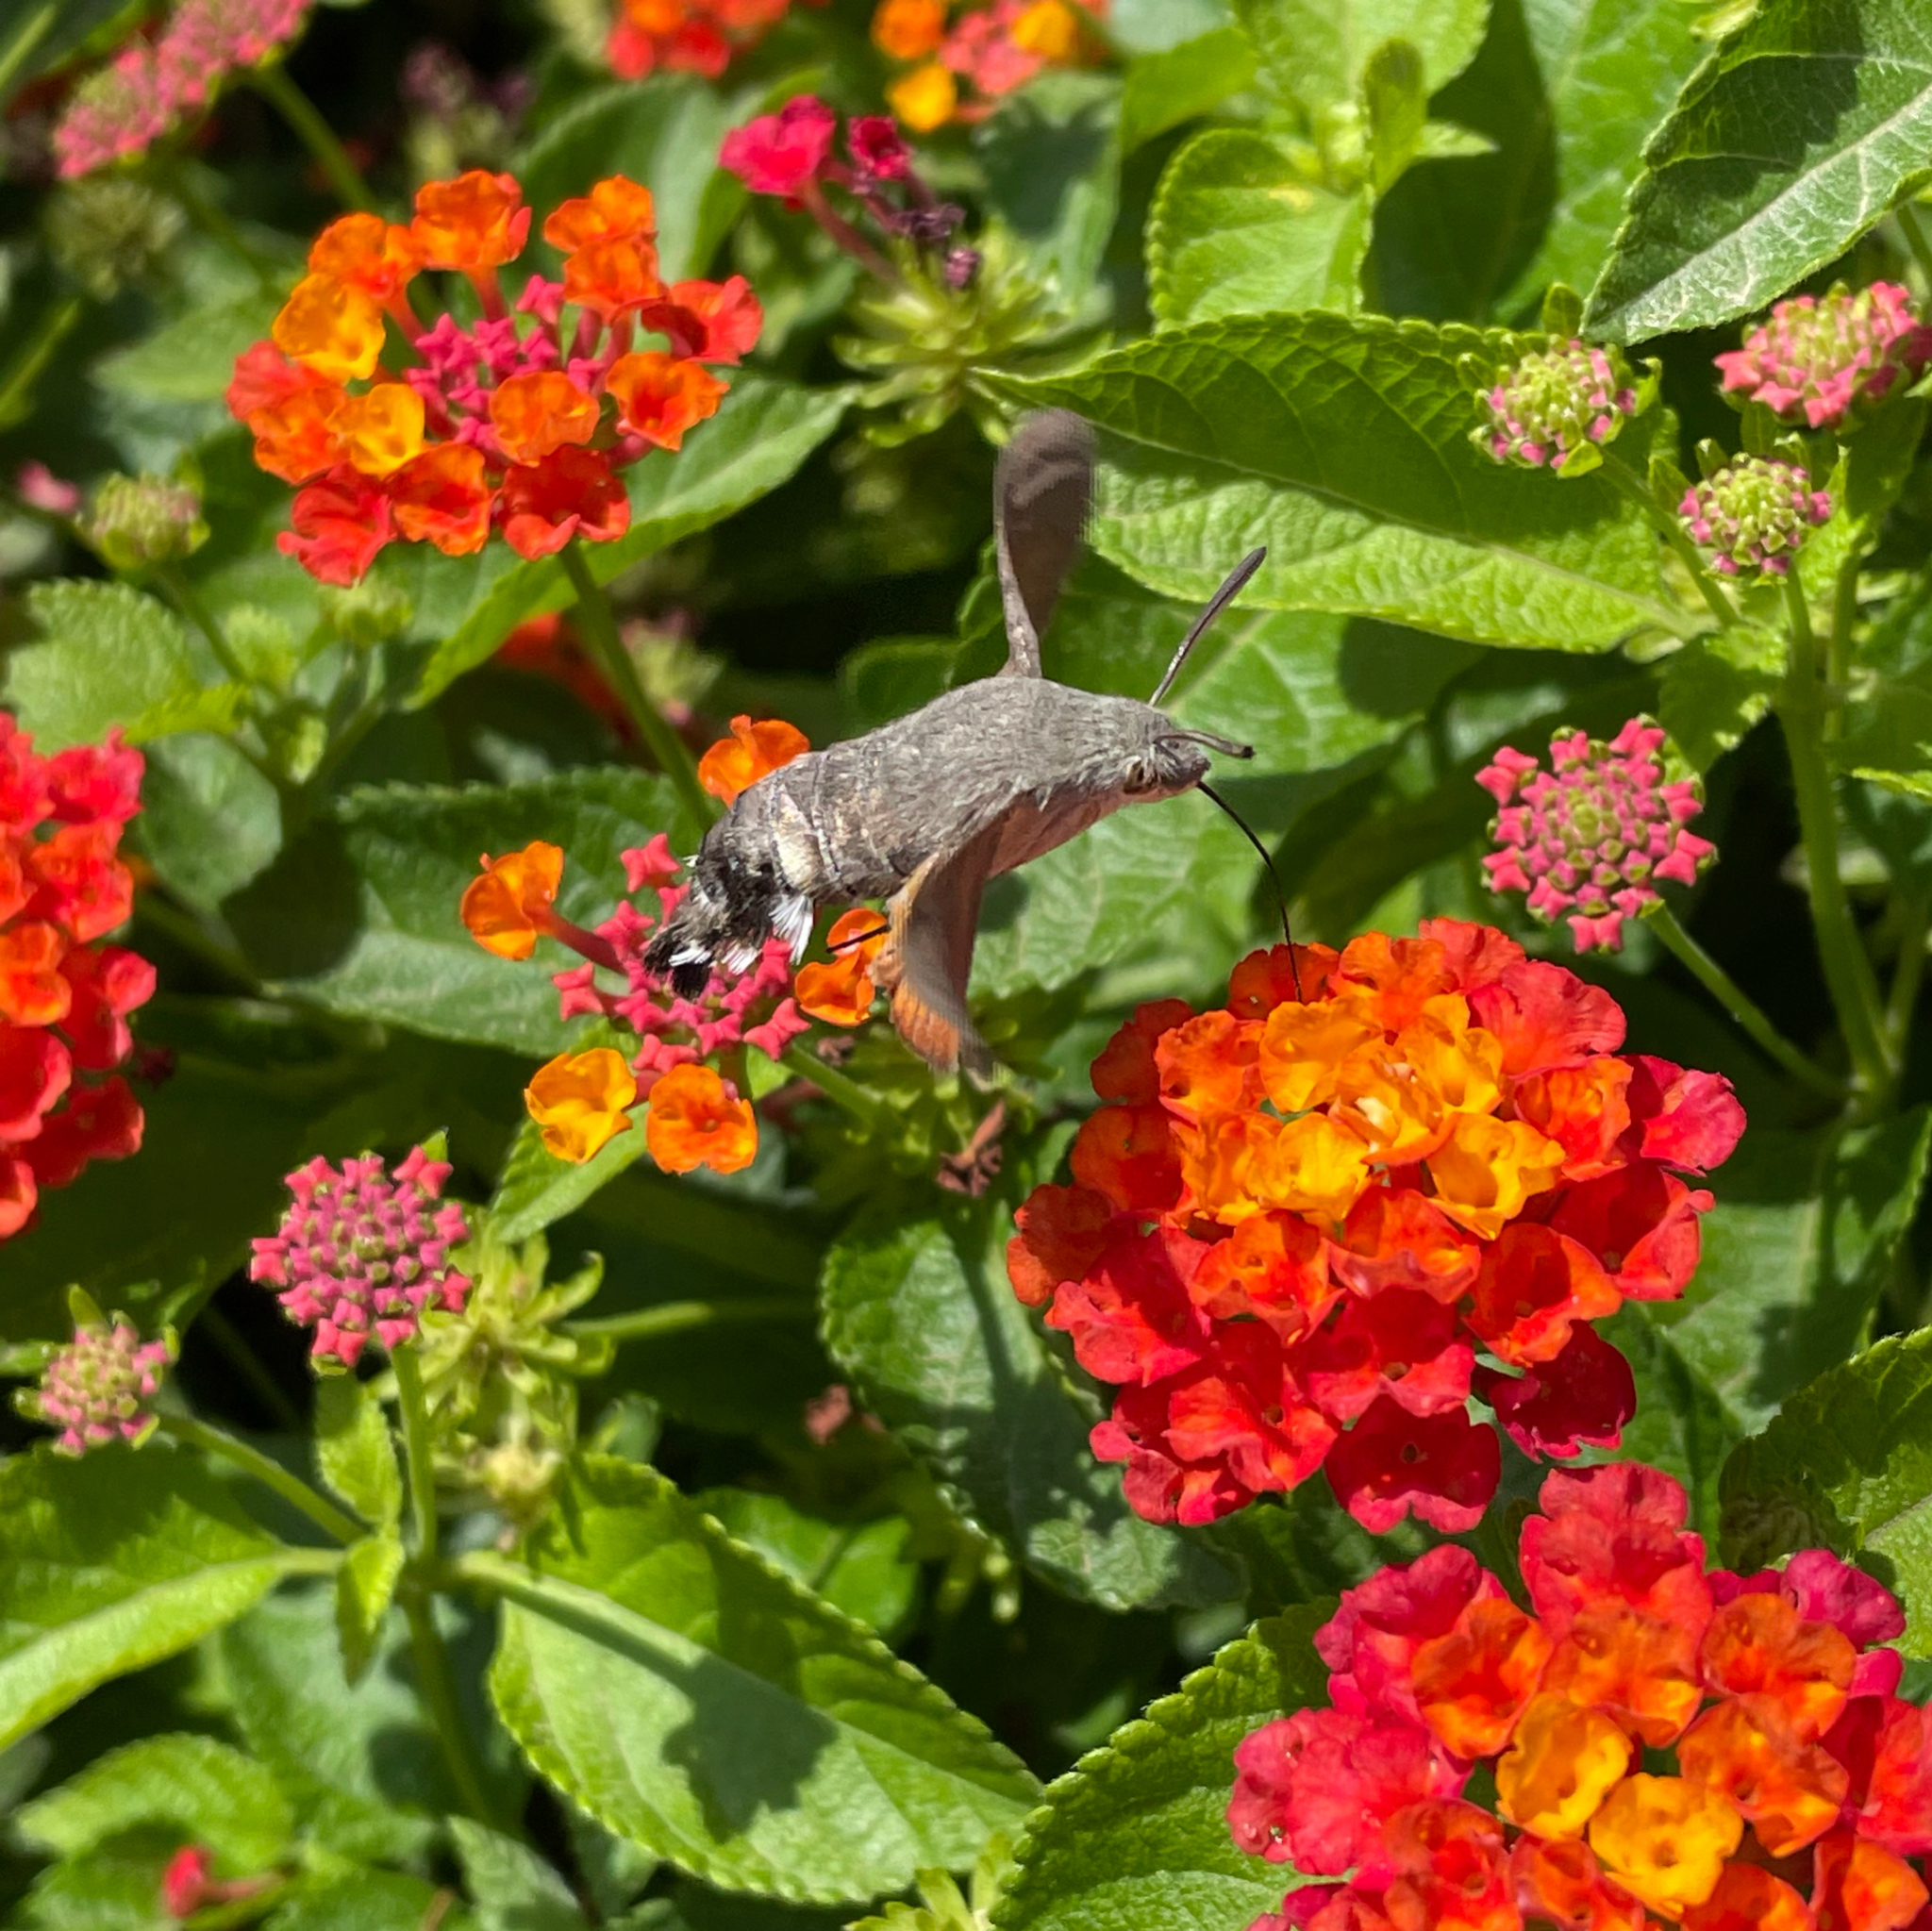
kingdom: Animalia
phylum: Arthropoda
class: Insecta
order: Lepidoptera
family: Sphingidae
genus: Macroglossum
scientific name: Macroglossum stellatarum
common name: Humming-bird hawk-moth
